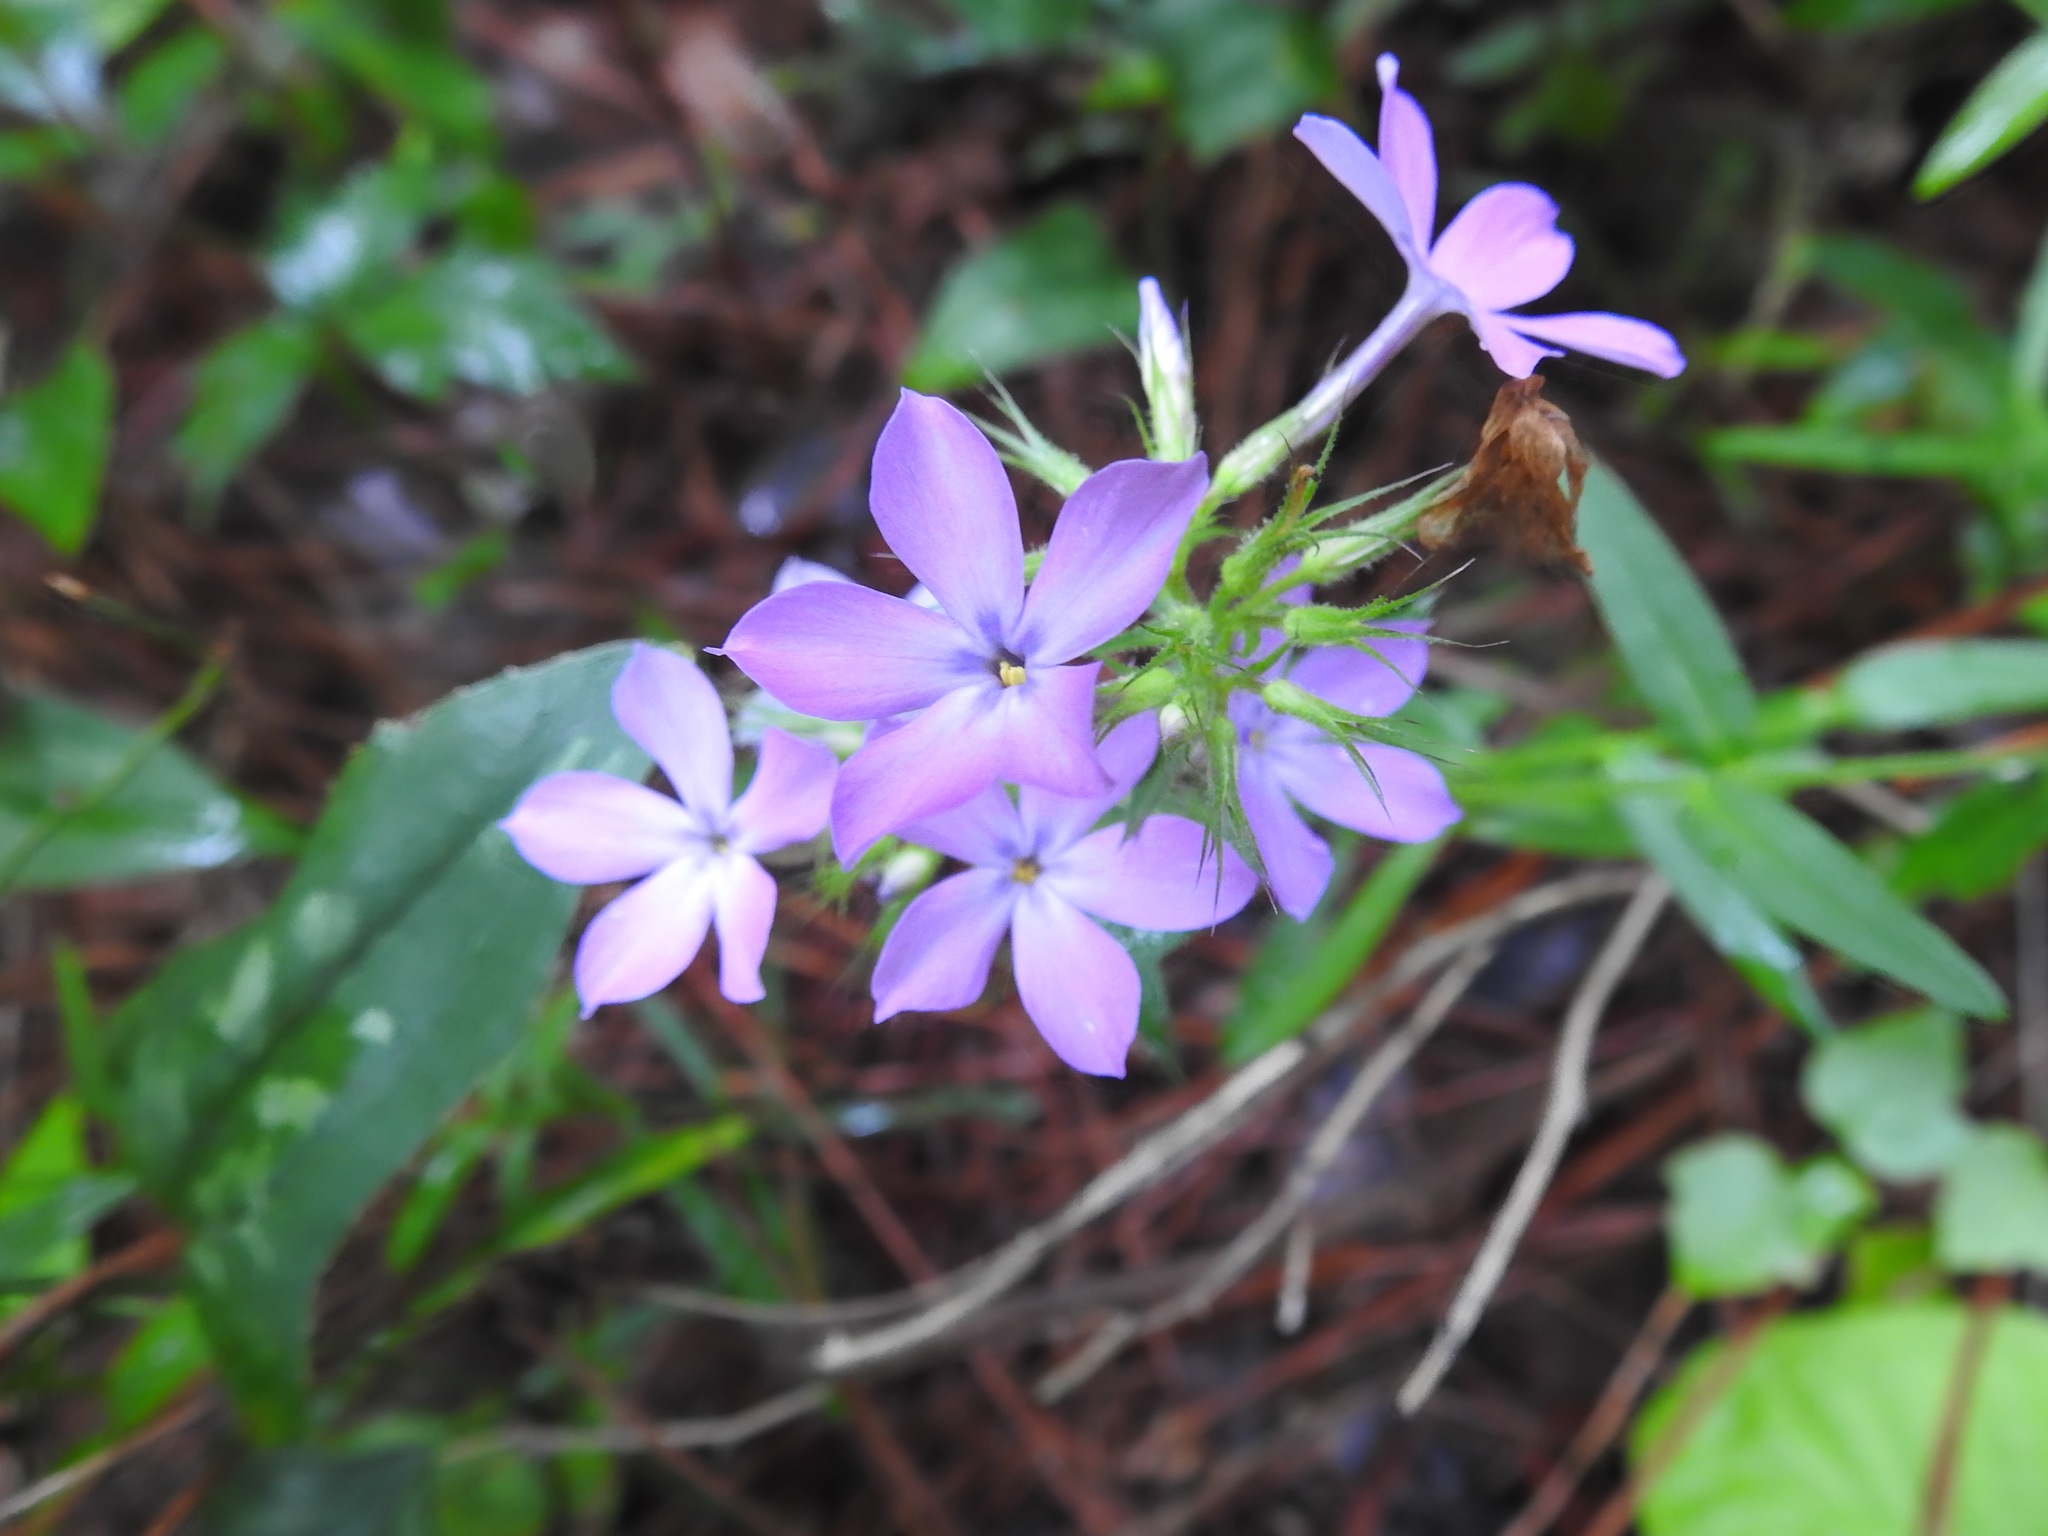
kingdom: Plantae
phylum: Tracheophyta
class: Magnoliopsida
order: Ericales
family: Polemoniaceae
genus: Phlox
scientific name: Phlox pilosa
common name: Prairie phlox
